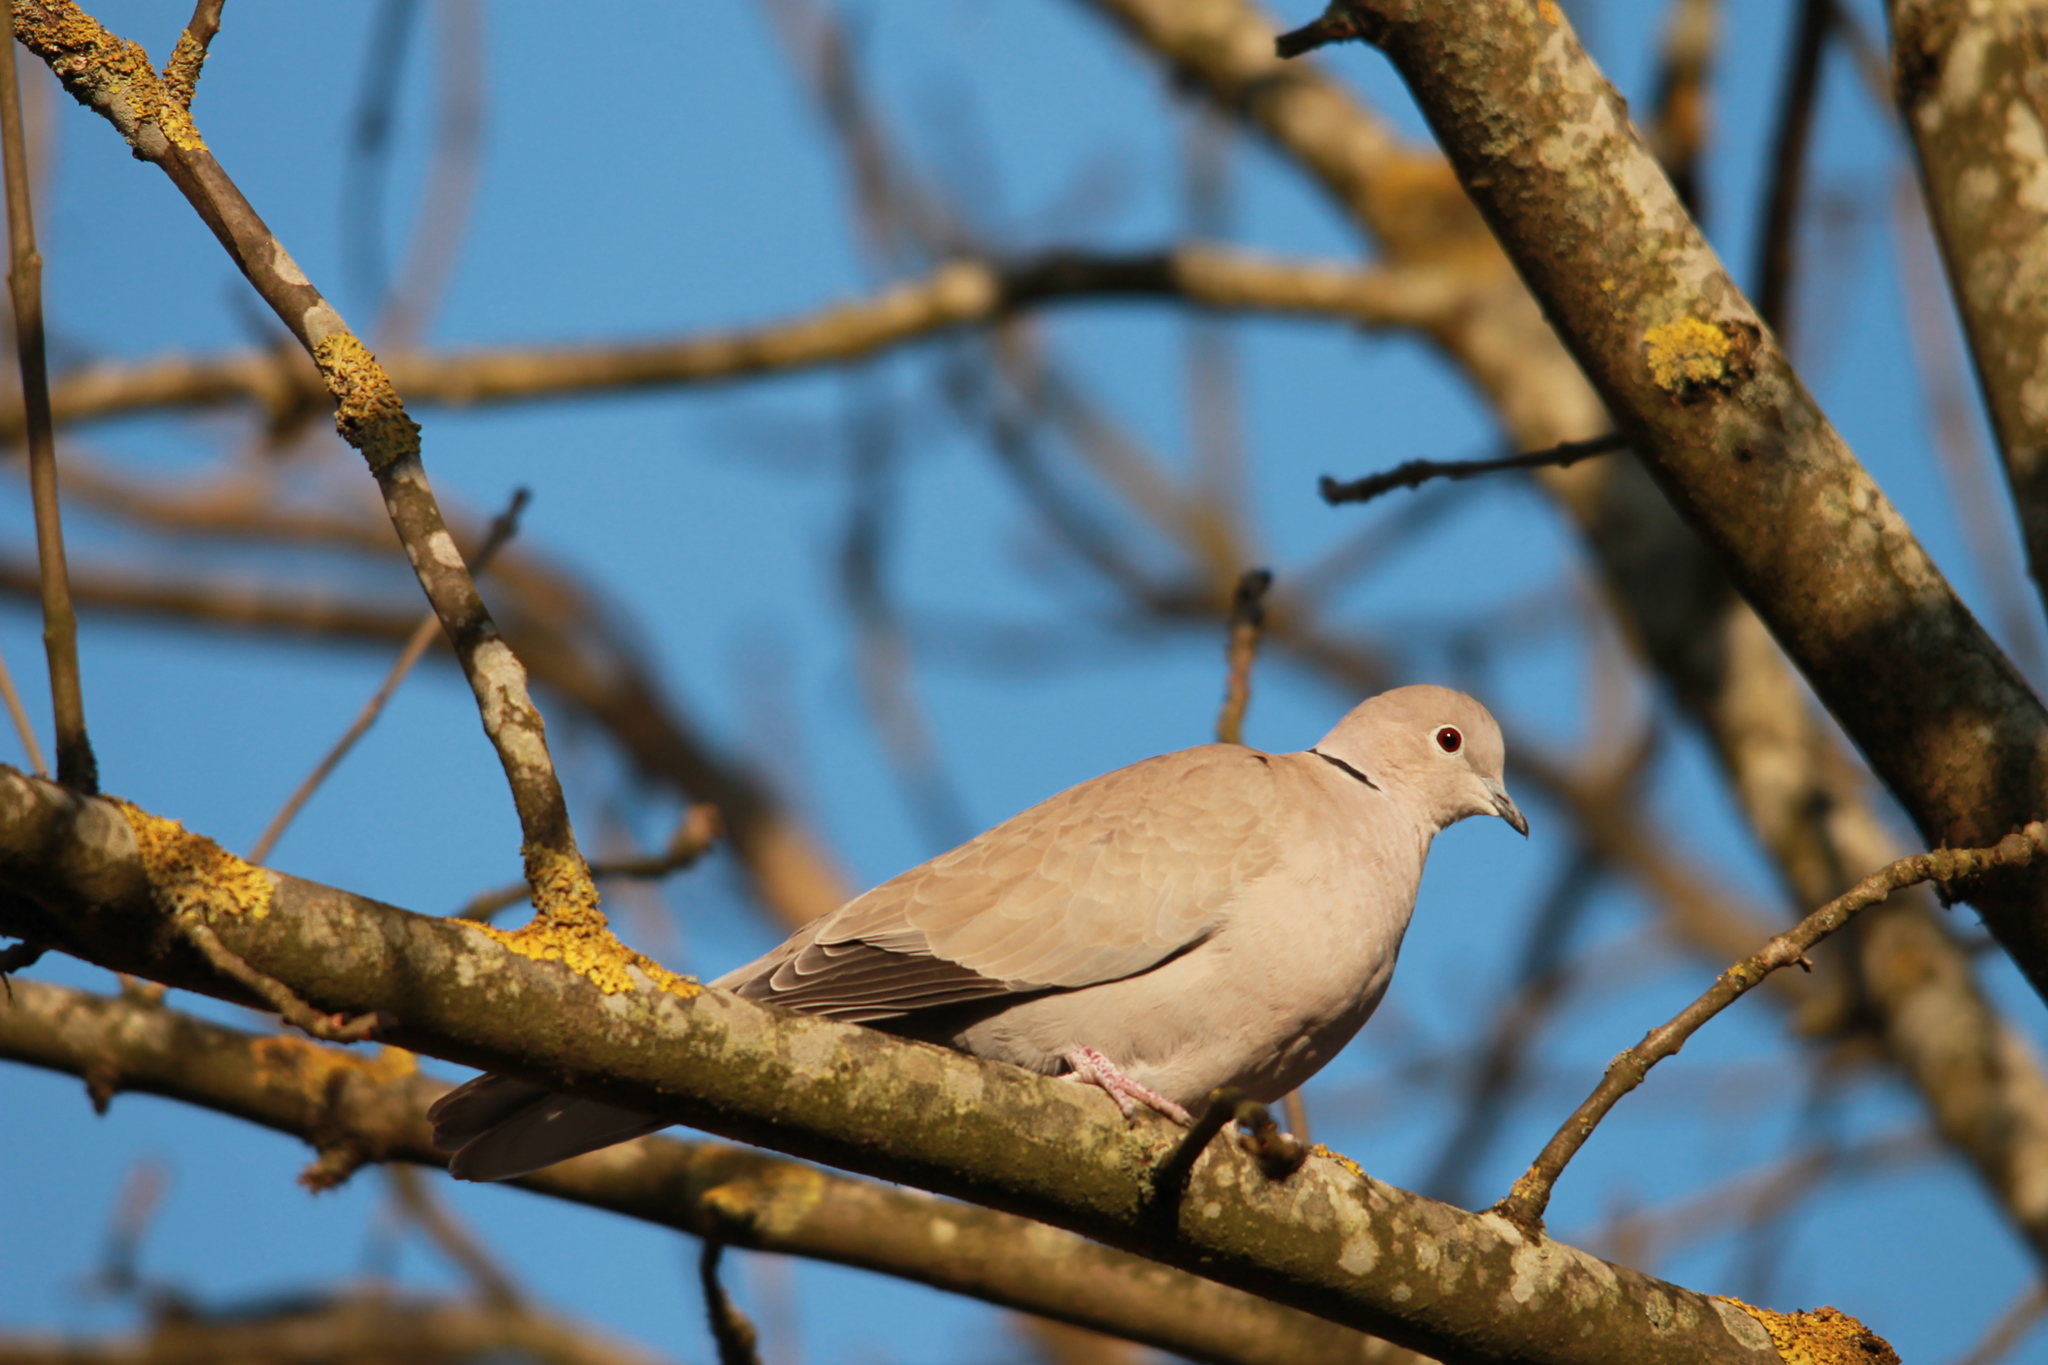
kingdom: Animalia
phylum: Chordata
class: Aves
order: Columbiformes
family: Columbidae
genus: Streptopelia
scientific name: Streptopelia decaocto
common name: Eurasian collared dove
